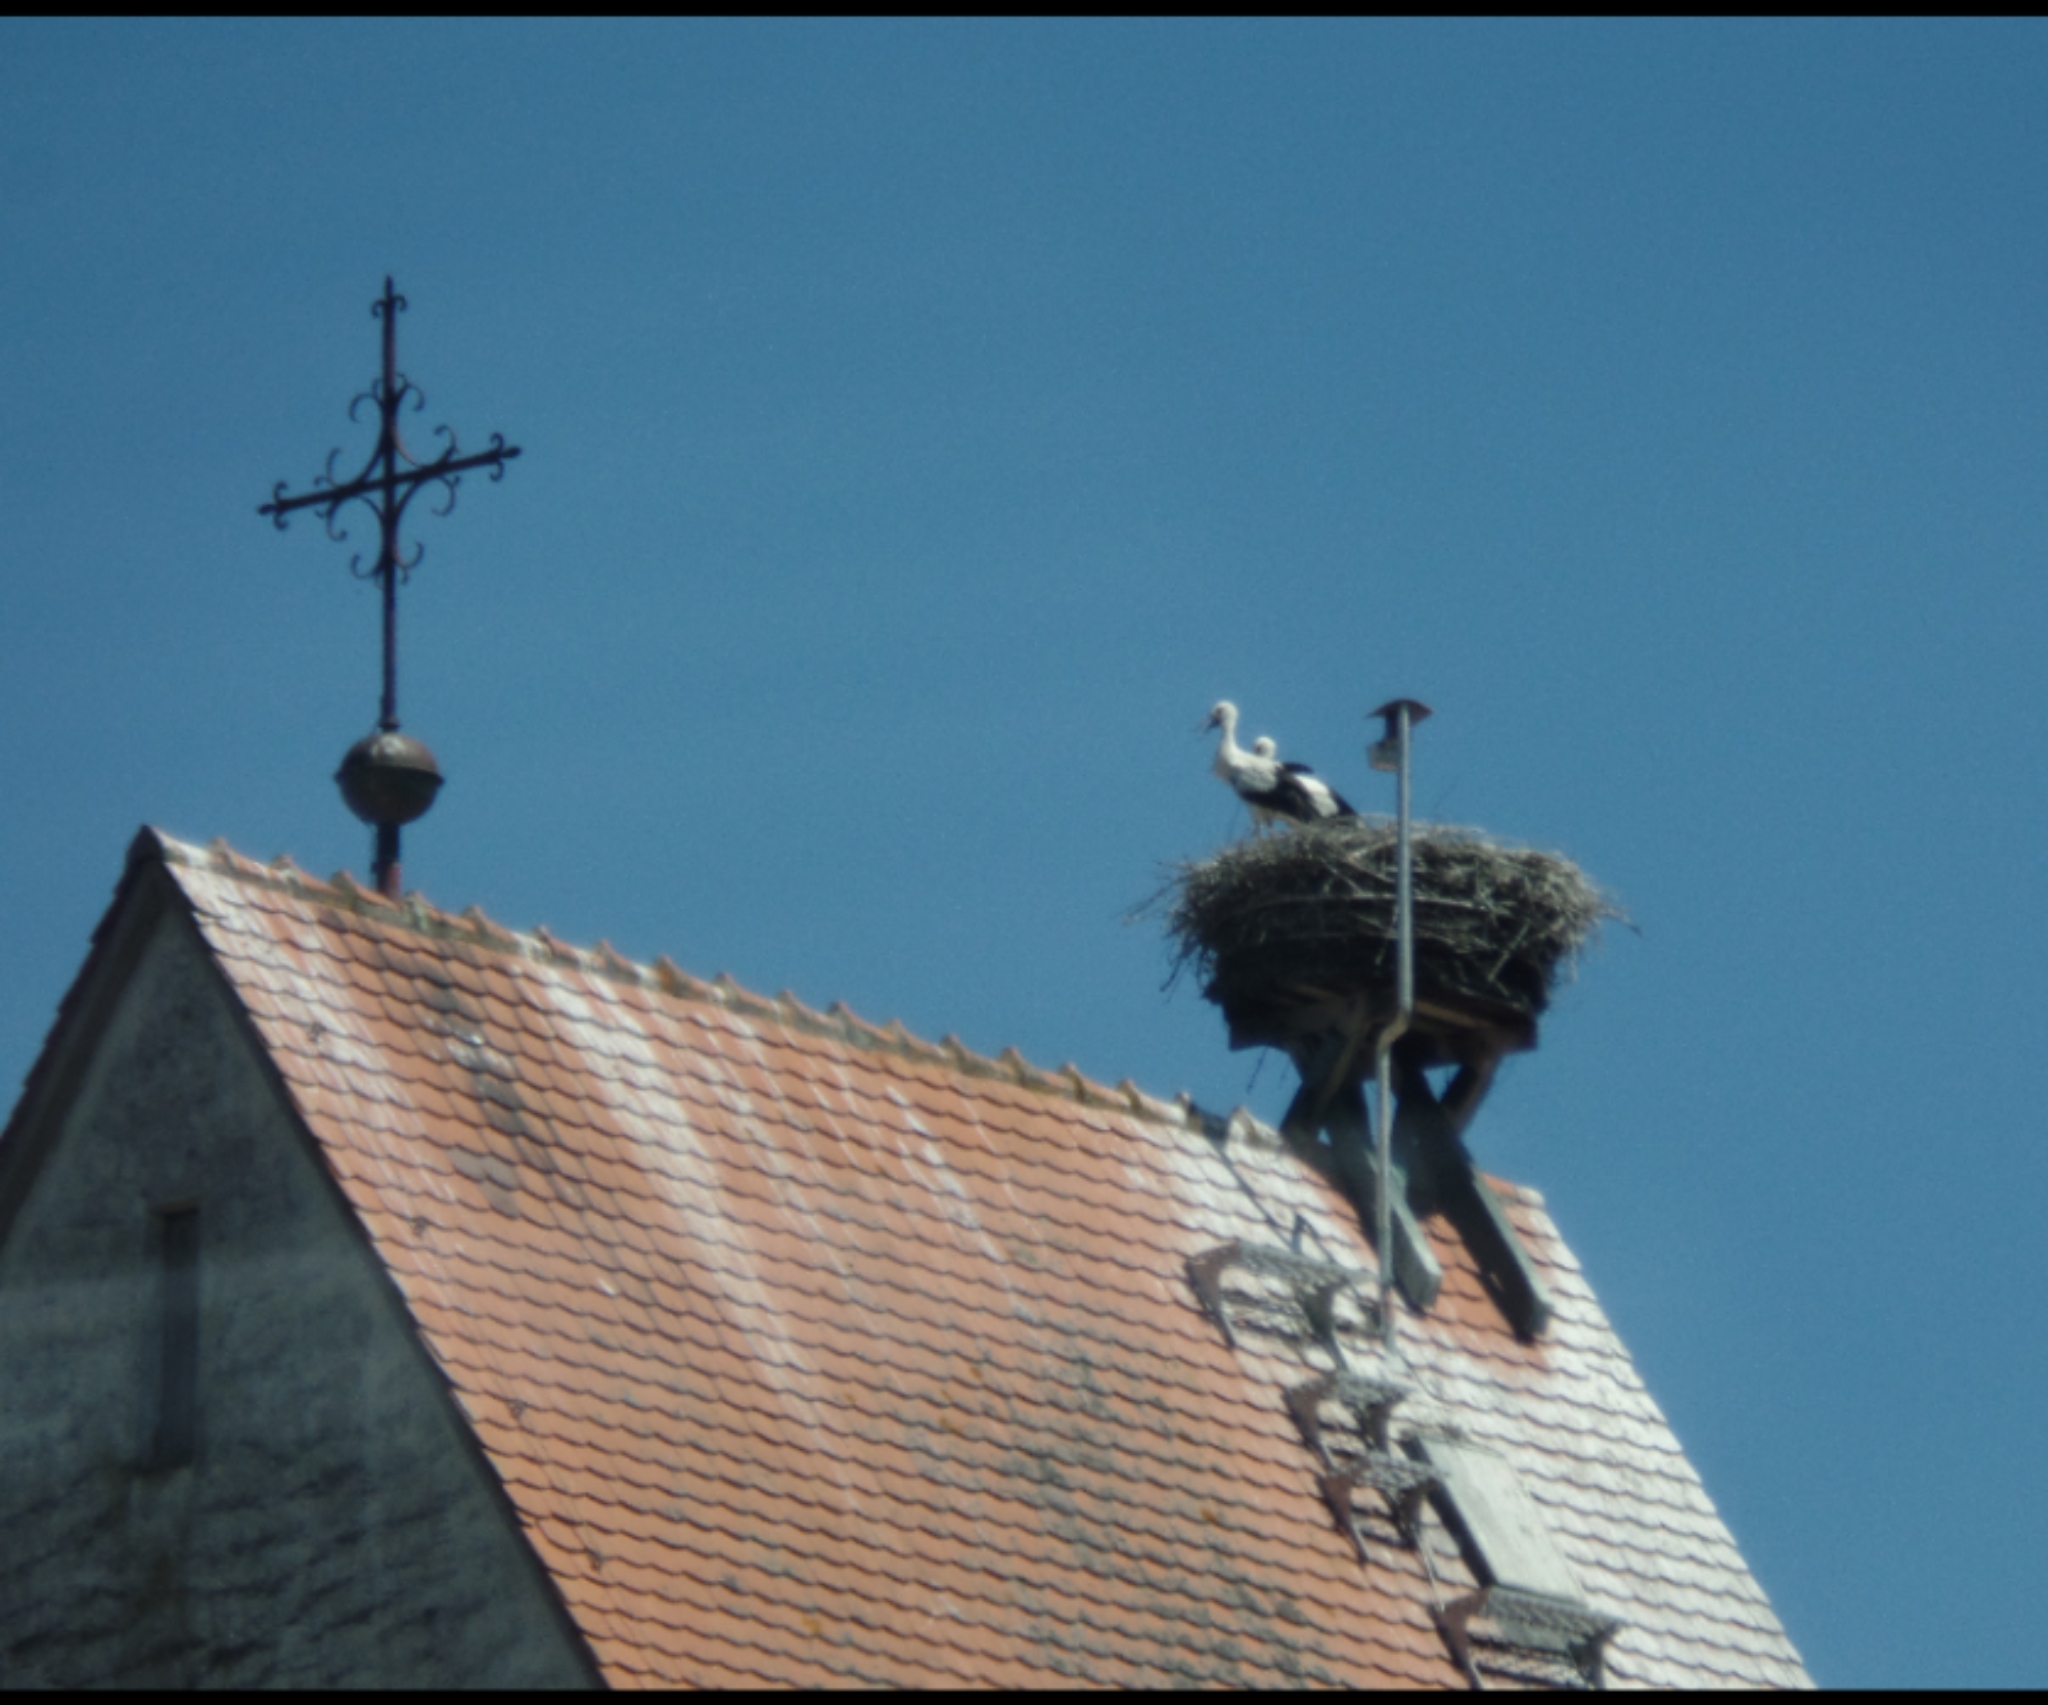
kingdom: Animalia
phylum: Chordata
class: Aves
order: Ciconiiformes
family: Ciconiidae
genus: Ciconia
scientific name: Ciconia ciconia
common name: White stork
